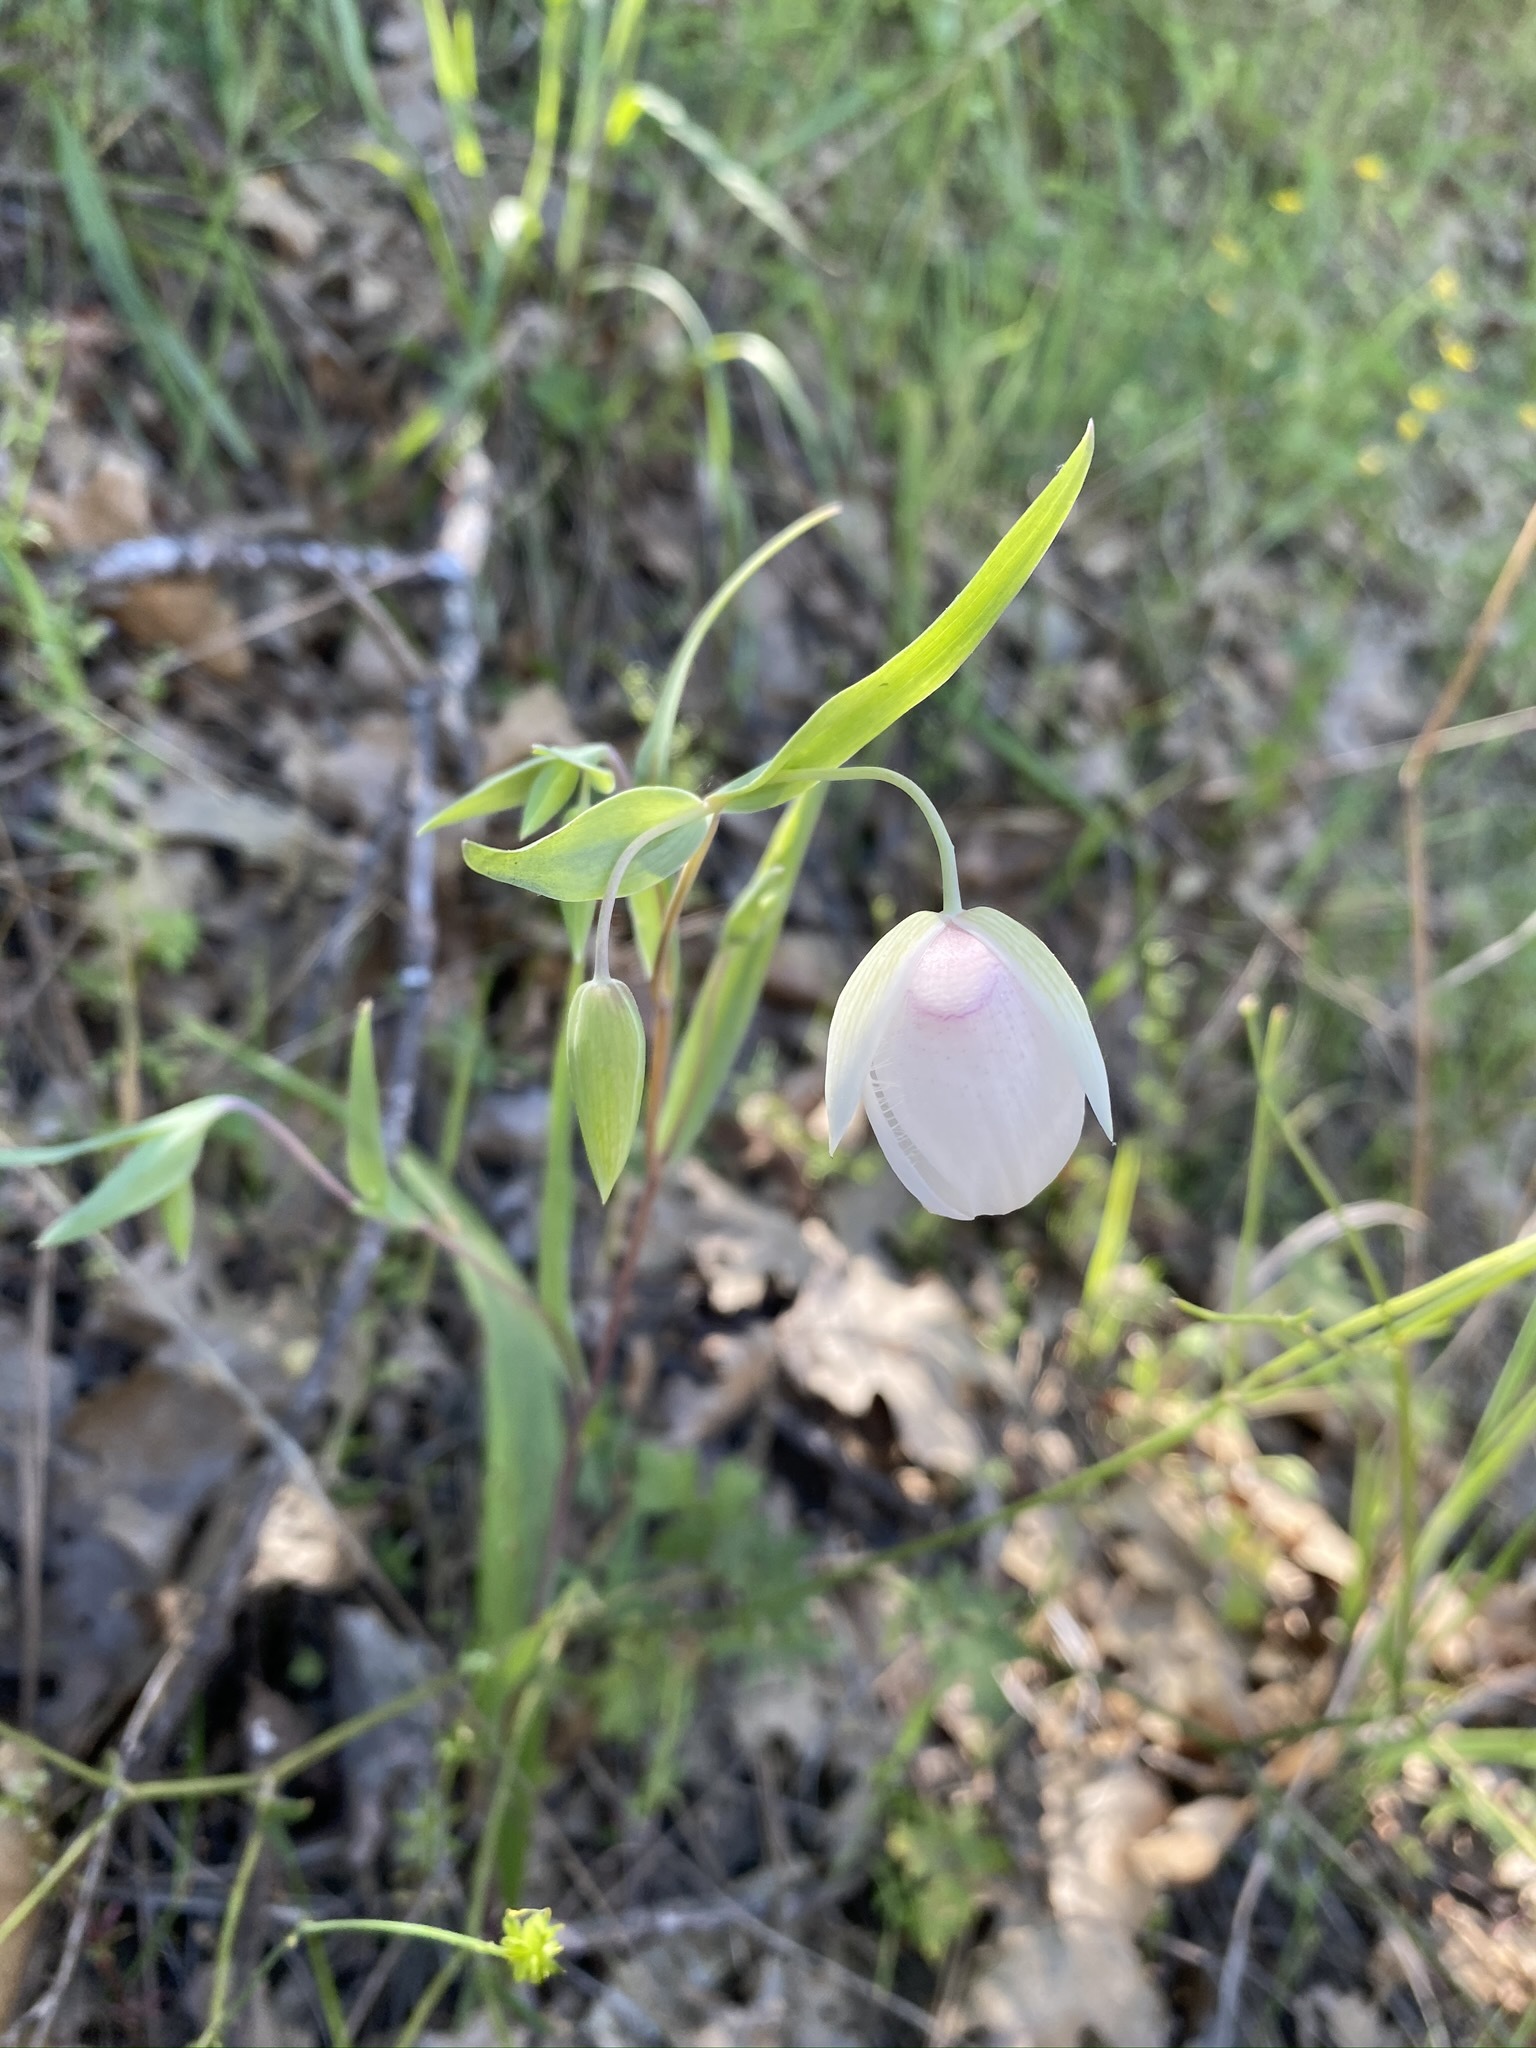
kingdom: Plantae
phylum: Tracheophyta
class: Liliopsida
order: Liliales
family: Liliaceae
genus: Calochortus
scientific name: Calochortus albus
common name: Fairy-lantern
